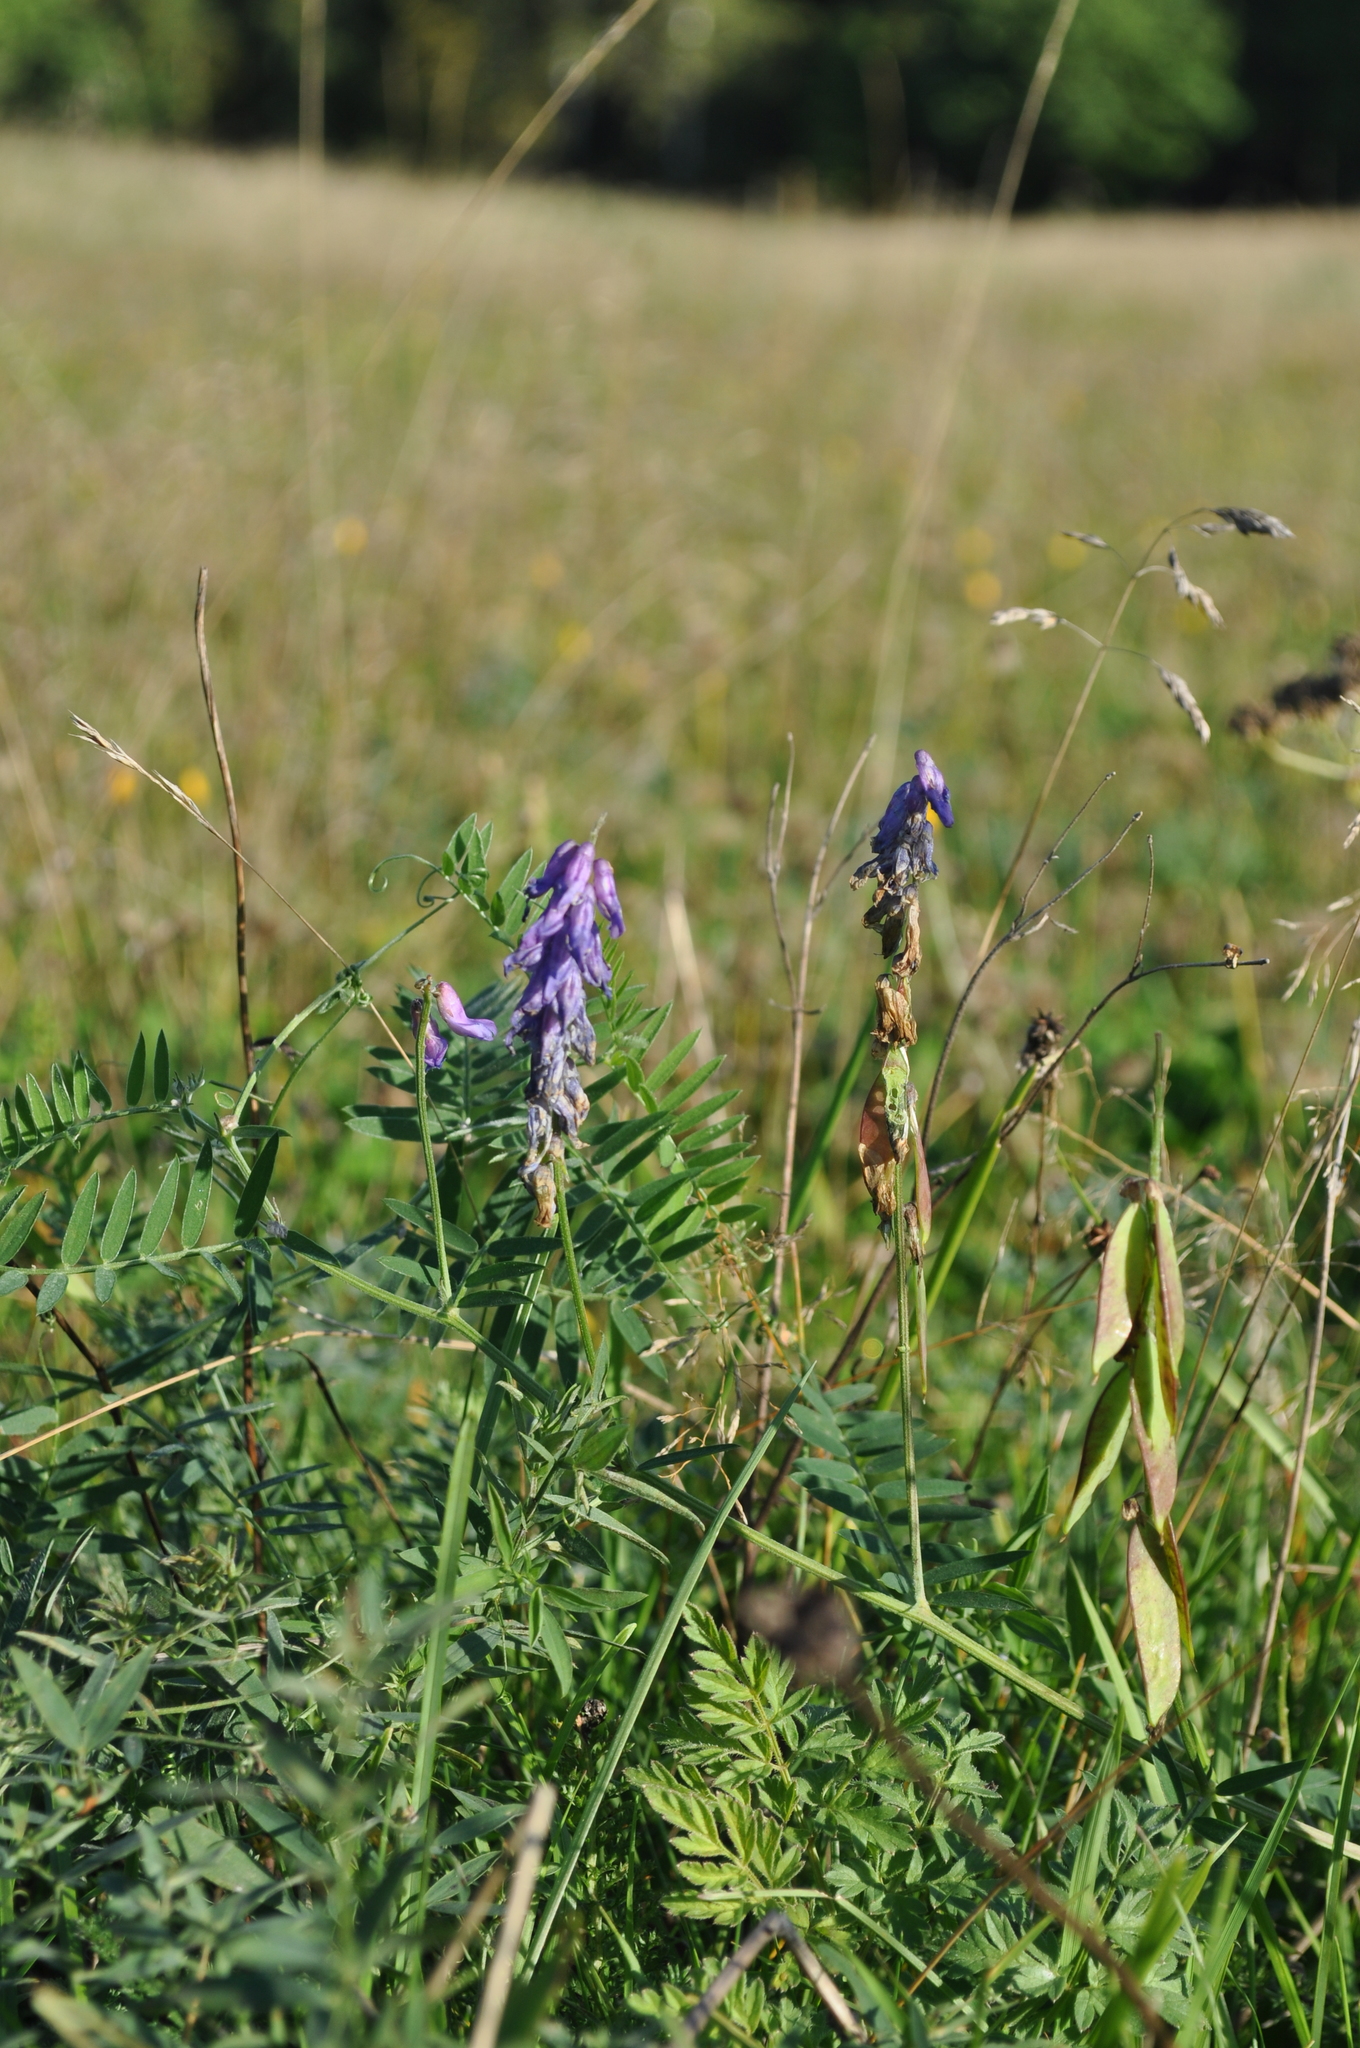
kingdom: Plantae
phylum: Tracheophyta
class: Magnoliopsida
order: Fabales
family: Fabaceae
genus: Vicia
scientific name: Vicia cracca
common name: Bird vetch
